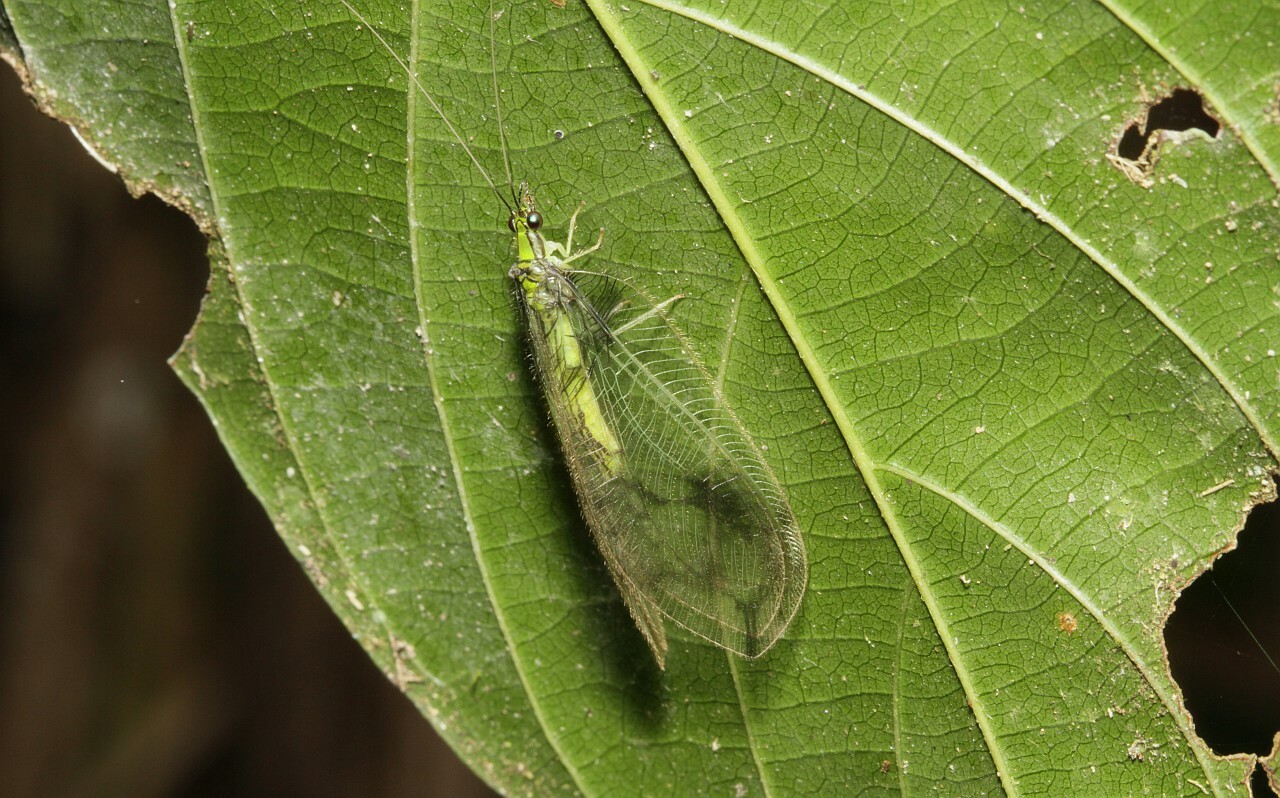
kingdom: Animalia
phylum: Arthropoda
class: Insecta
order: Neuroptera
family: Chrysopidae
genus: Vieira
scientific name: Vieira leschenaulti
